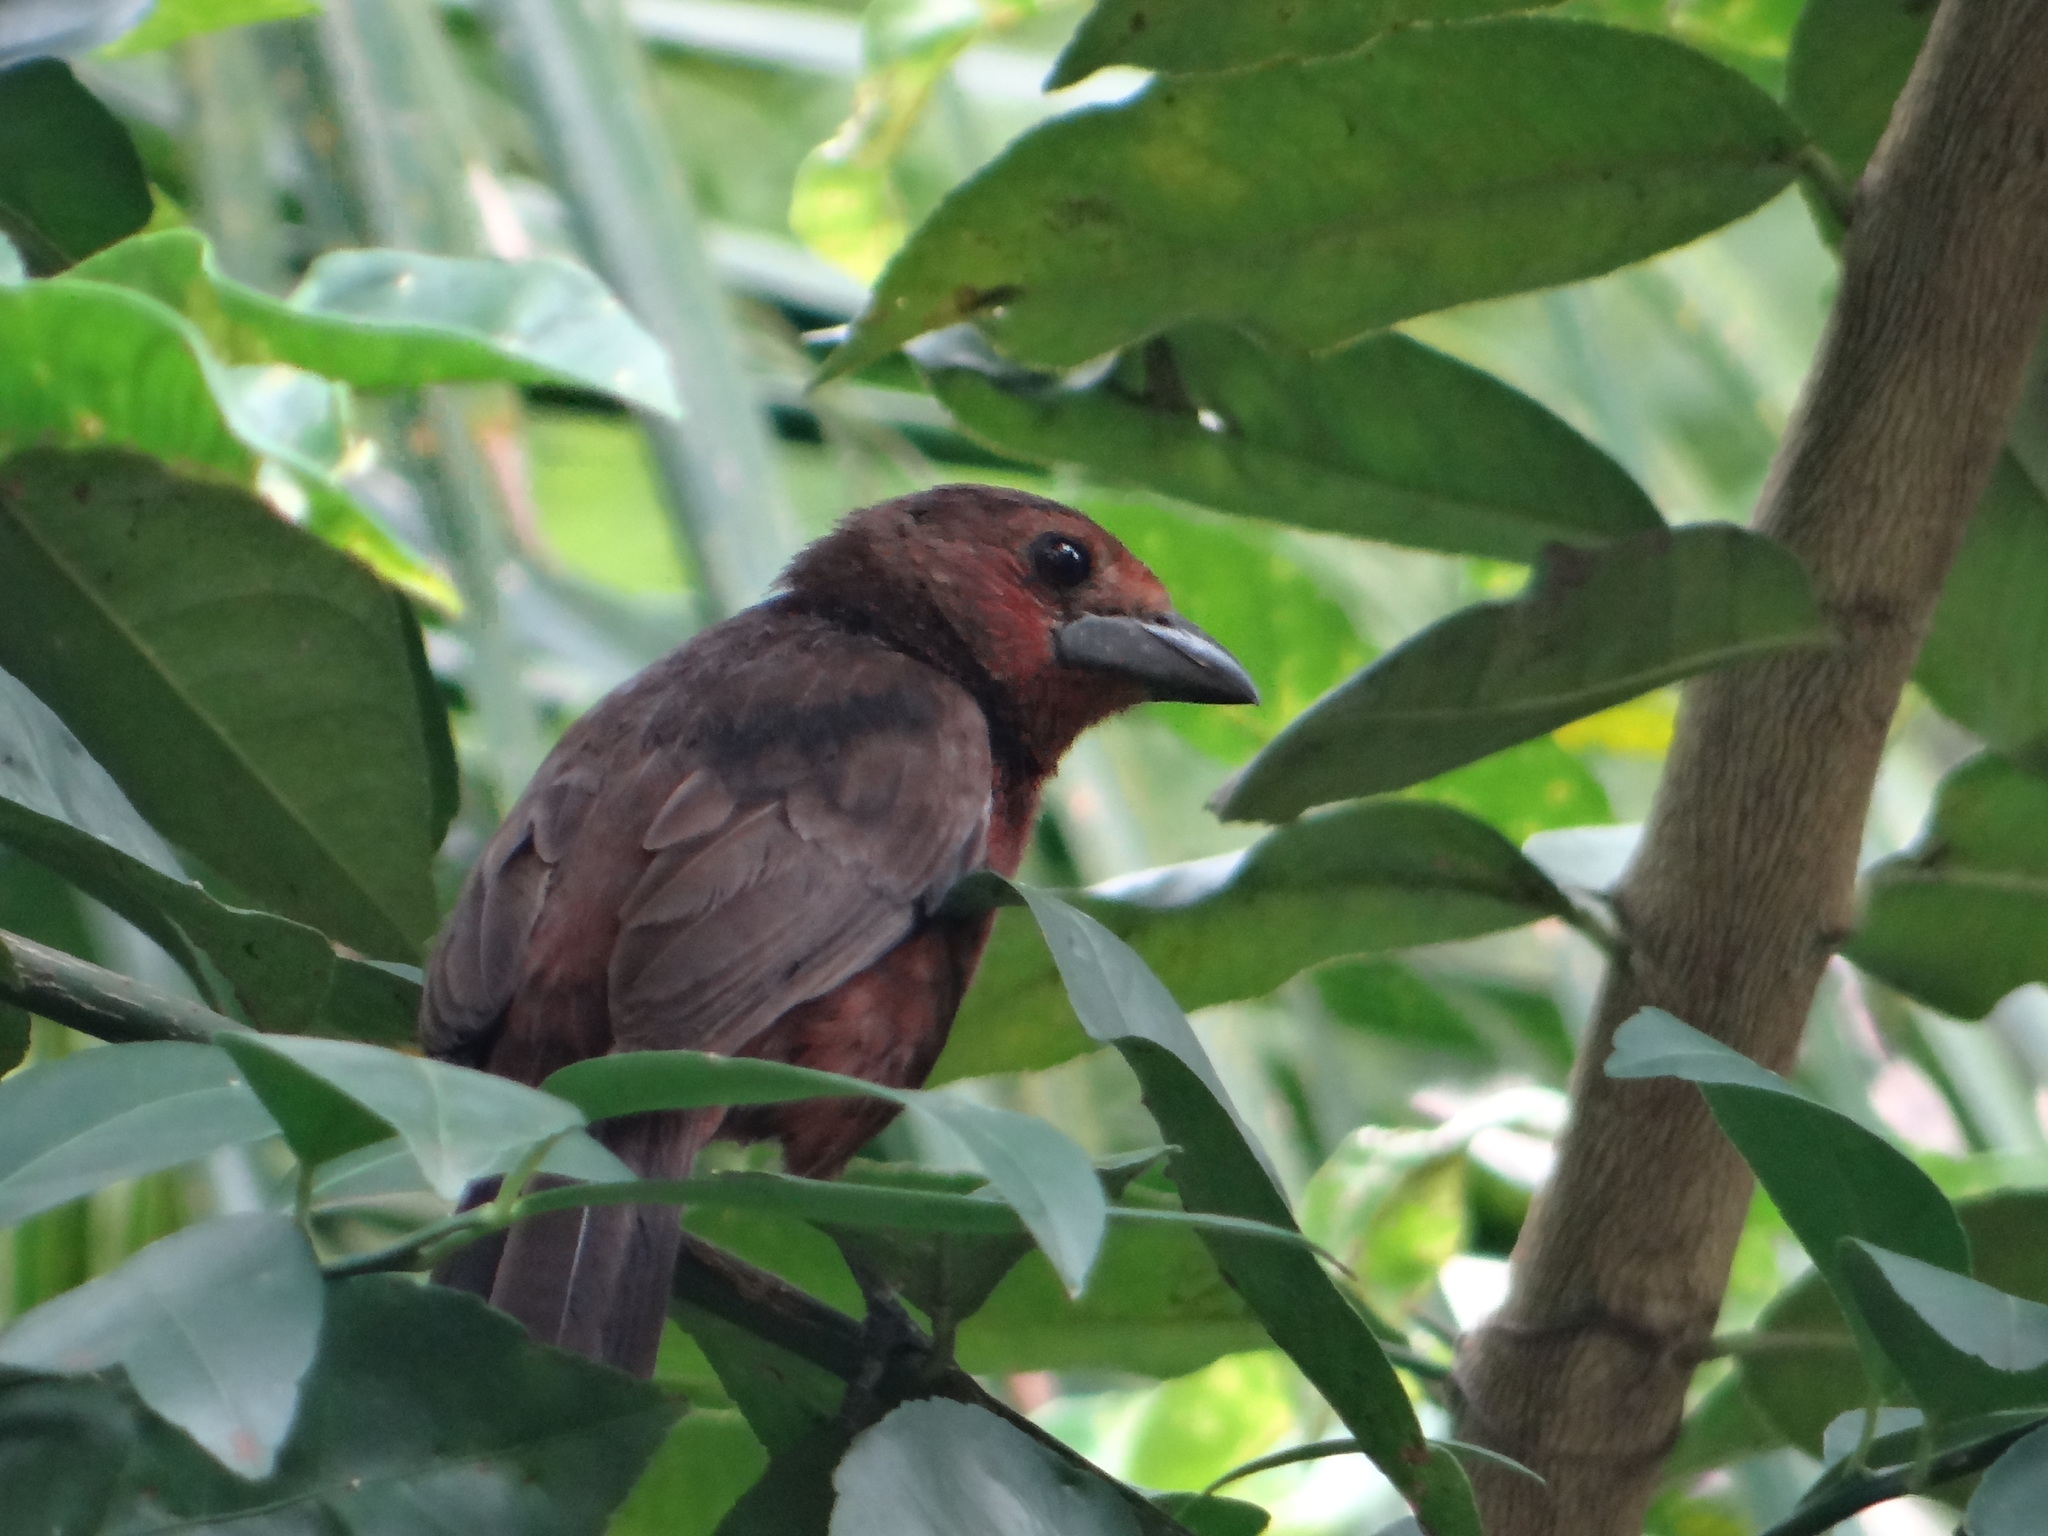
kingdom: Animalia
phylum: Chordata
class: Aves
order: Passeriformes
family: Thraupidae
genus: Ramphocelus
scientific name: Ramphocelus carbo
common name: Silver-beaked tanager
